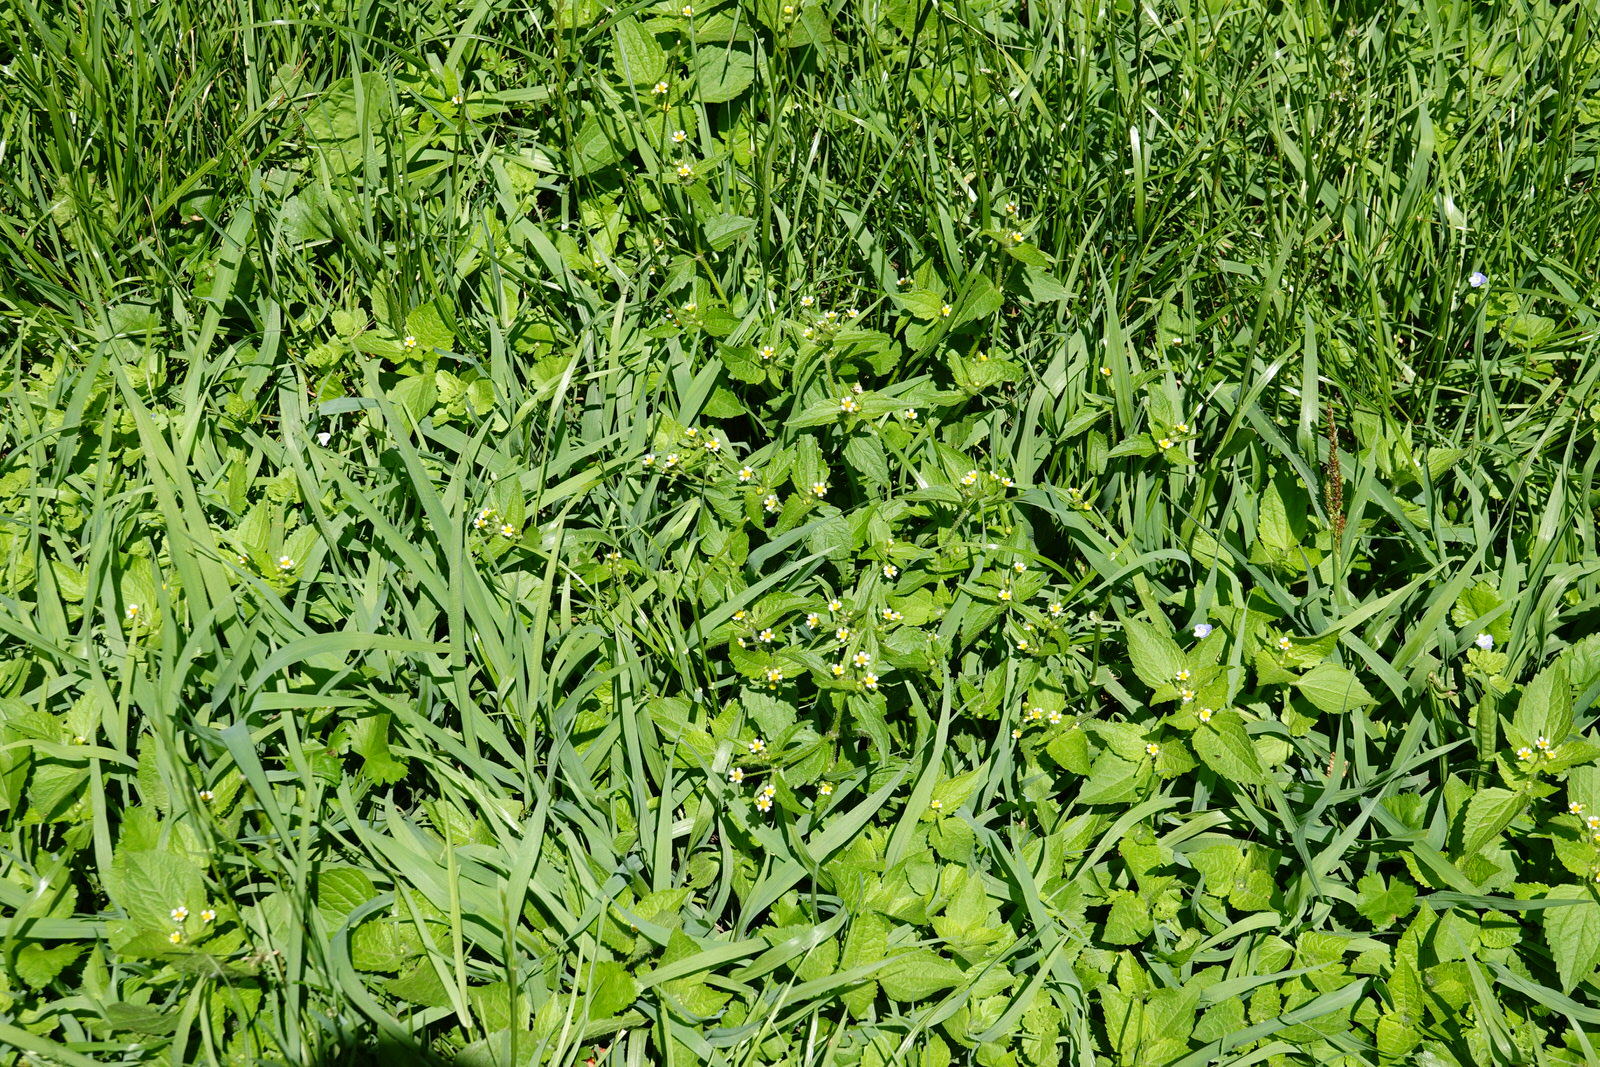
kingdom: Plantae
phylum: Tracheophyta
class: Magnoliopsida
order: Asterales
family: Asteraceae
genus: Galinsoga
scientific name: Galinsoga quadriradiata
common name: Shaggy soldier
